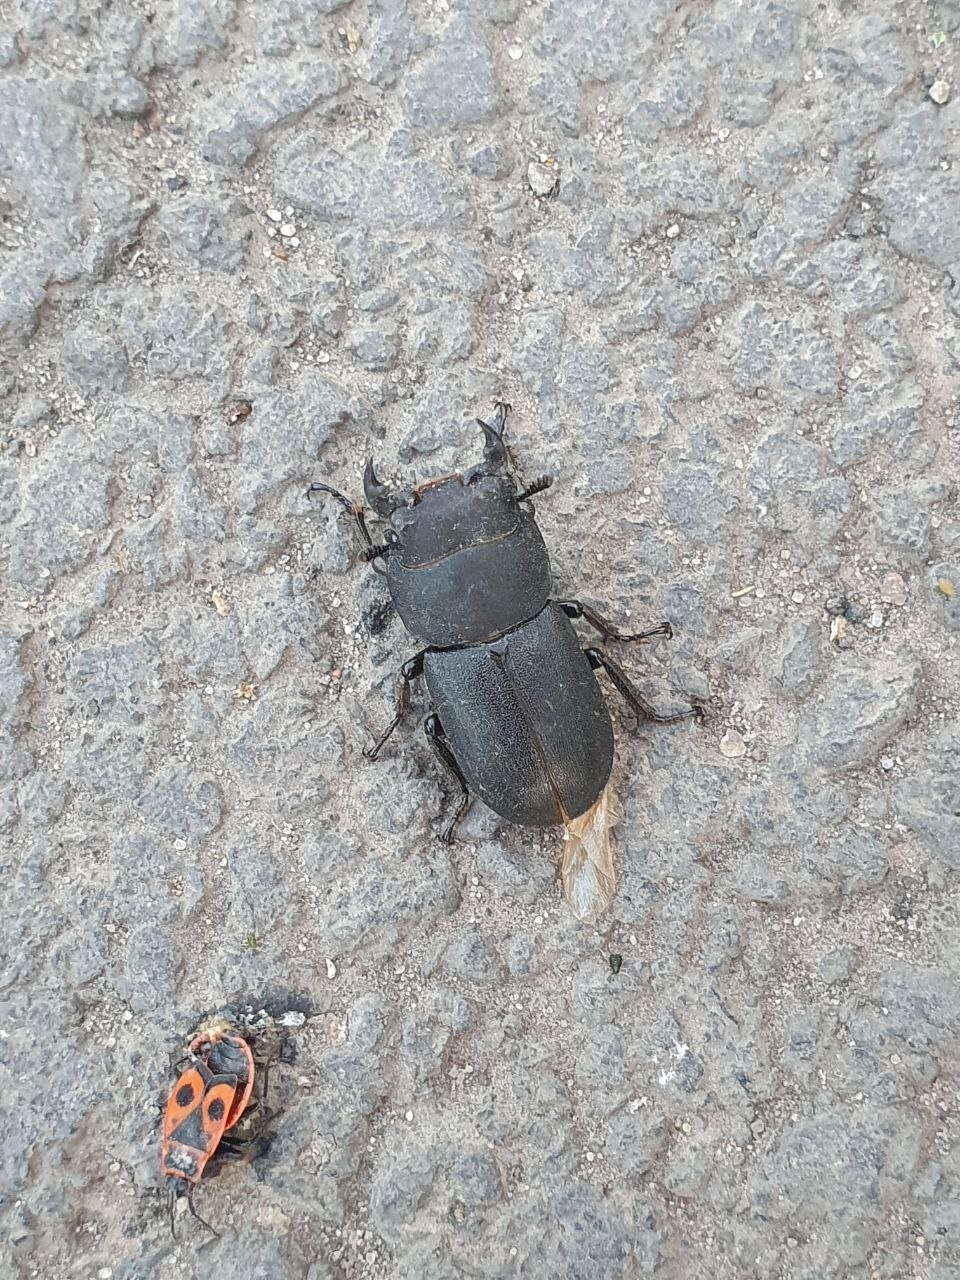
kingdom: Animalia
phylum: Arthropoda
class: Insecta
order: Coleoptera
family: Lucanidae
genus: Dorcus
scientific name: Dorcus parallelipipedus
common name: Lesser stag beetle
